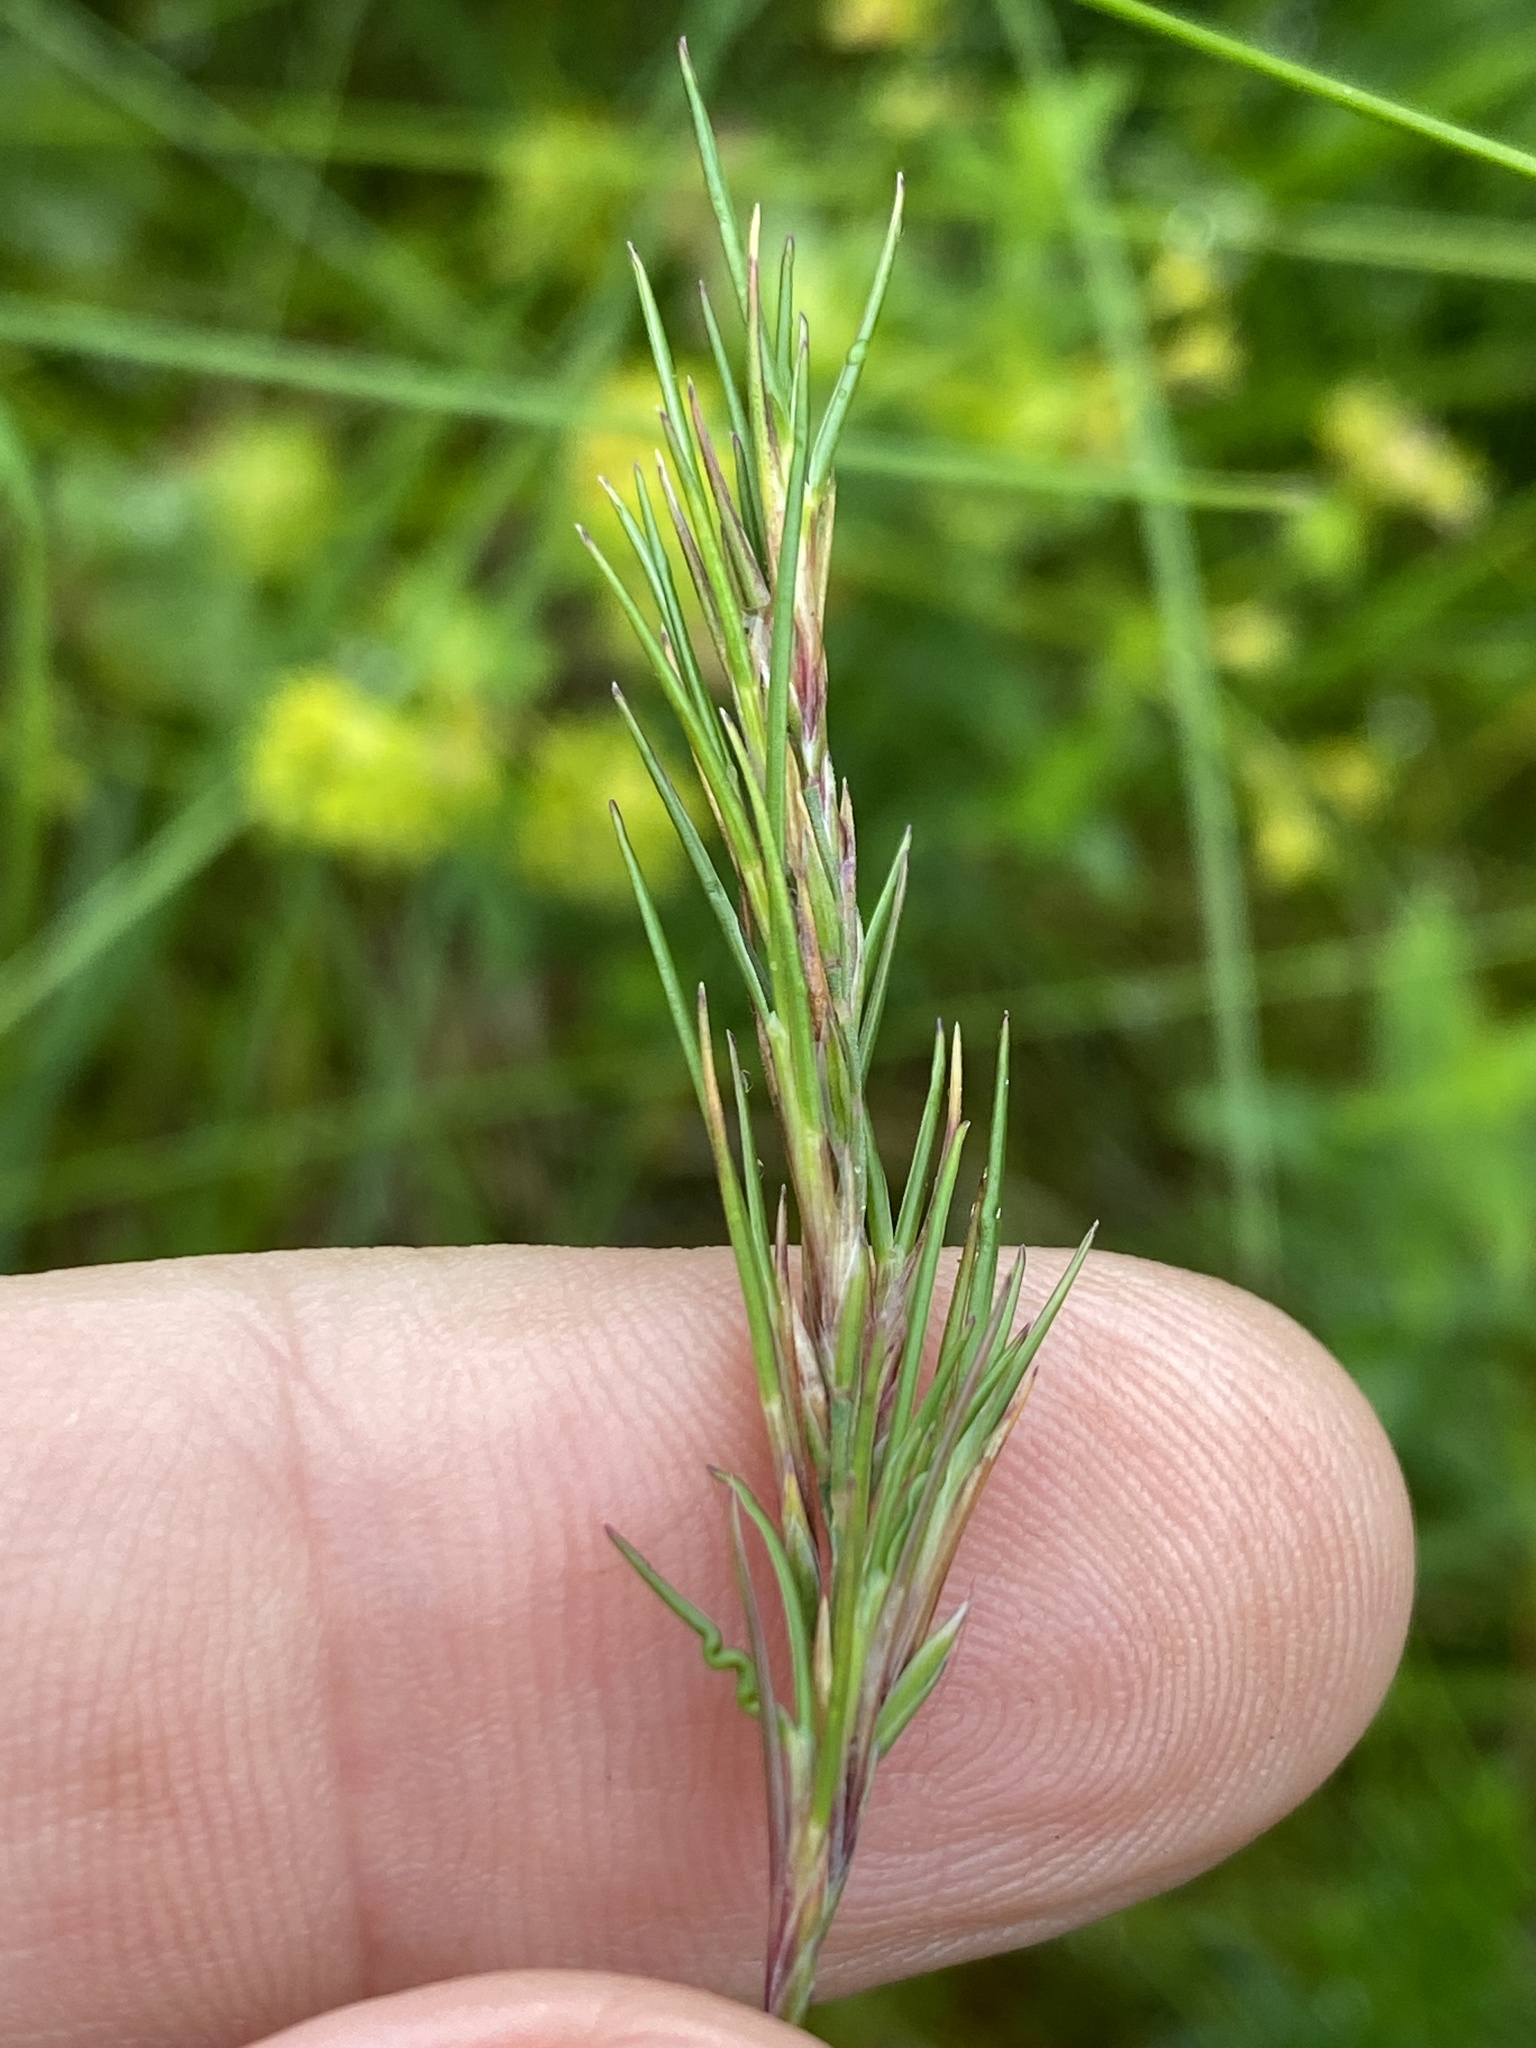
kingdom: Plantae
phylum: Tracheophyta
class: Liliopsida
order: Poales
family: Poaceae
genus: Poa
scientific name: Poa bulbosa
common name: Bulbous bluegrass
